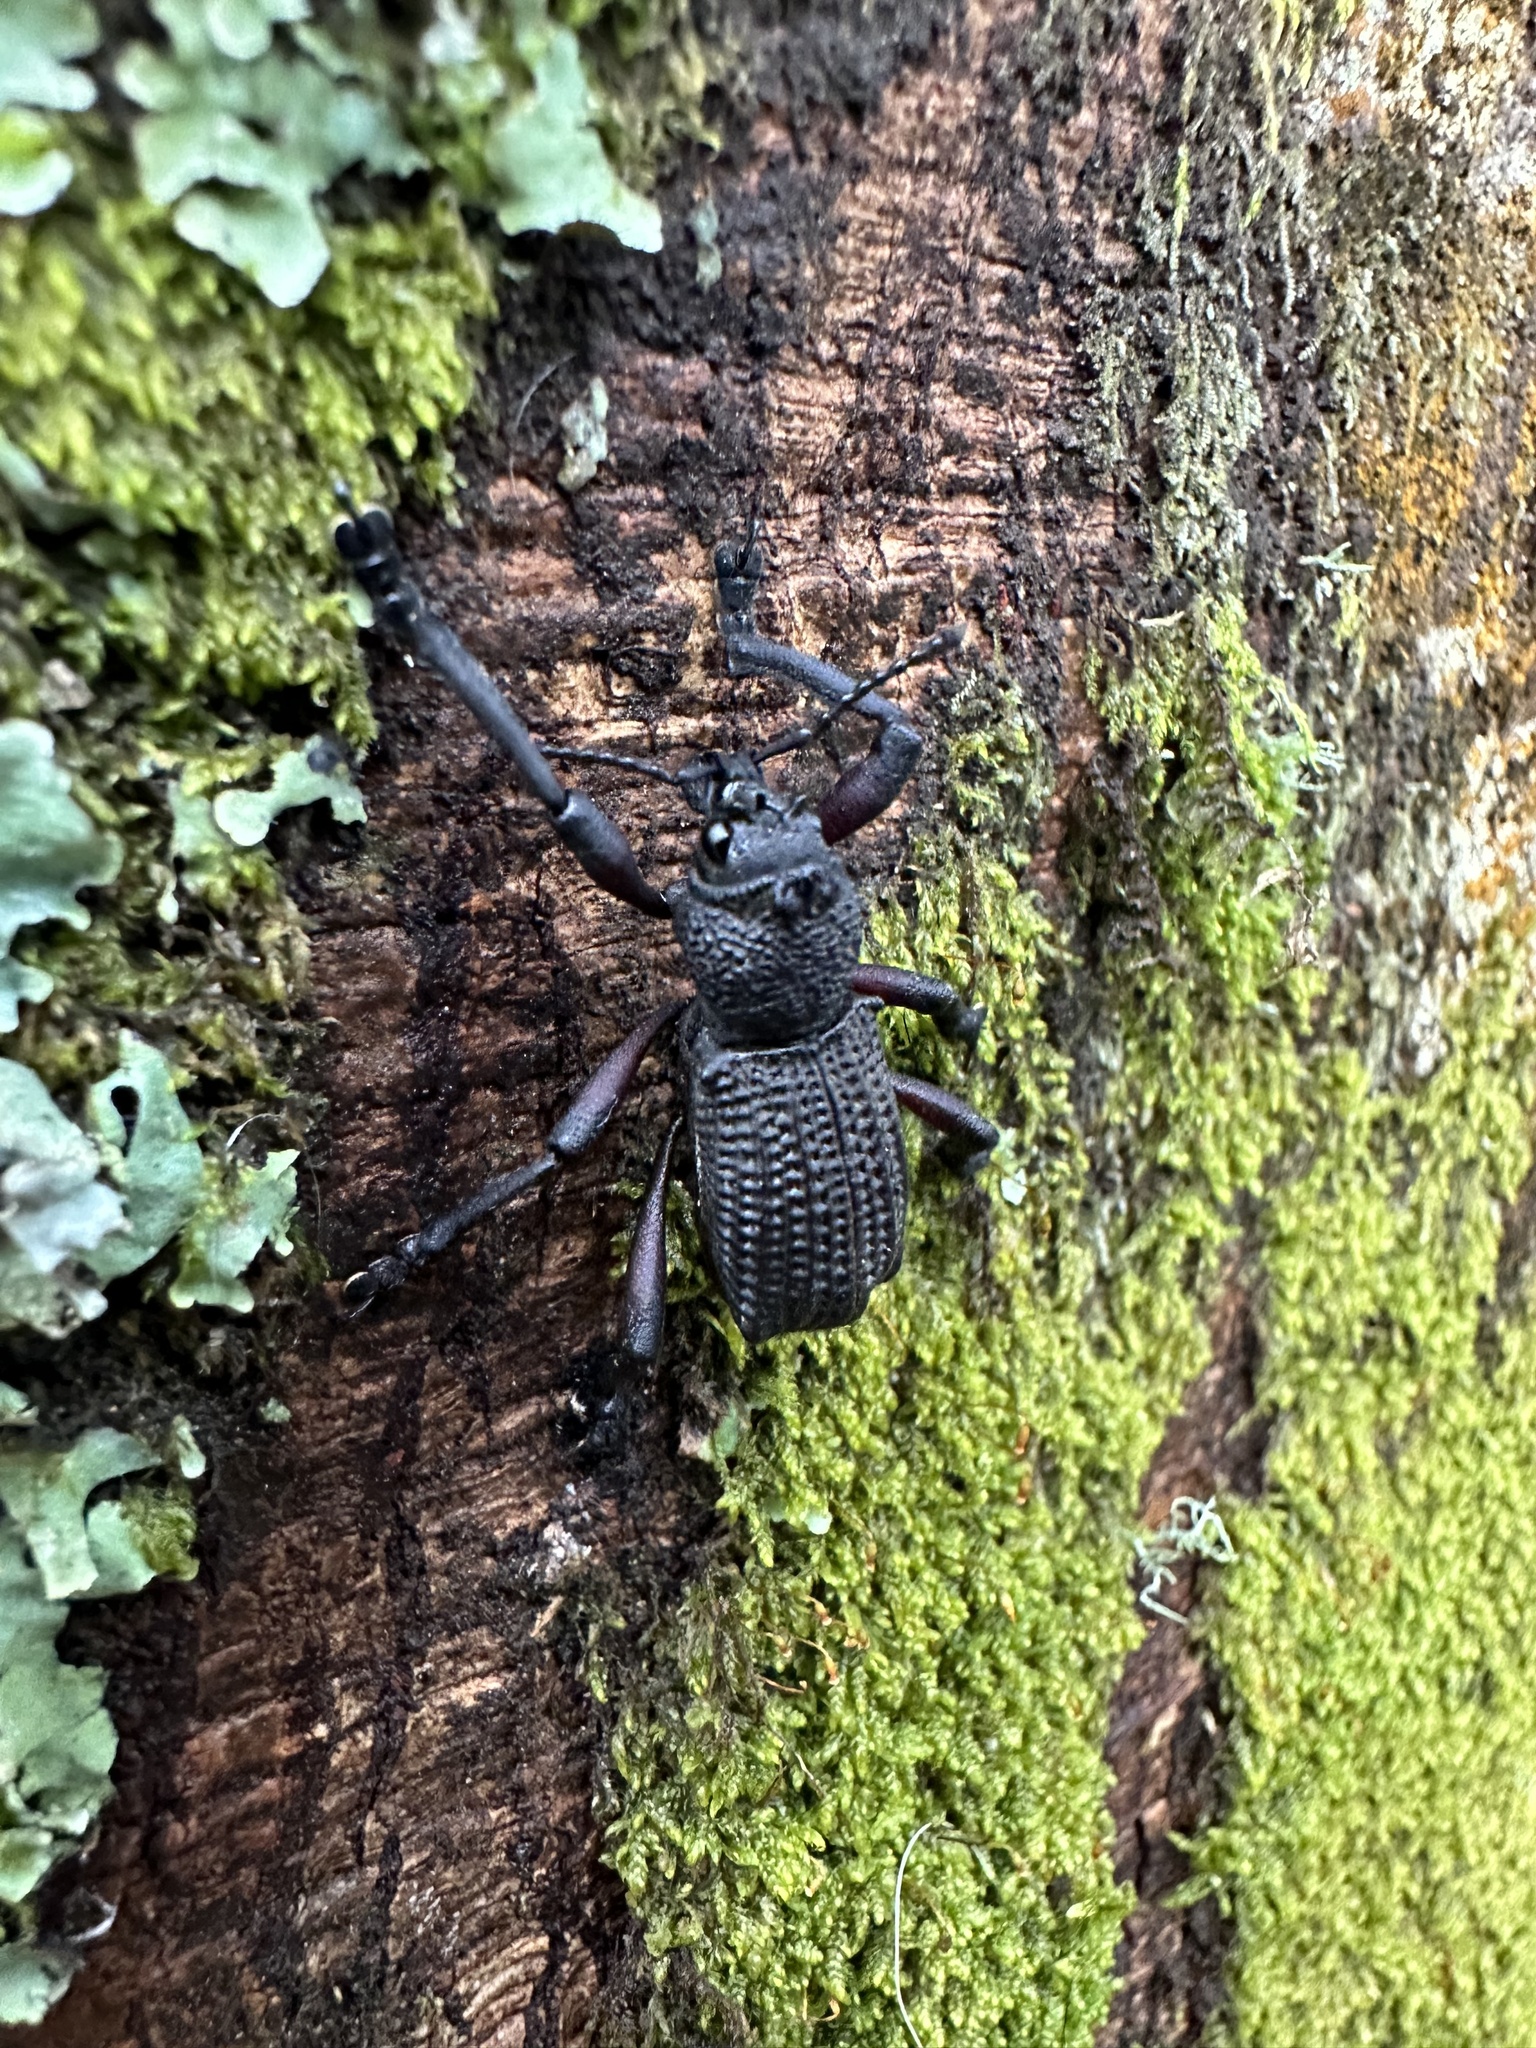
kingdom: Animalia
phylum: Arthropoda
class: Insecta
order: Coleoptera
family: Curculionidae
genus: Aegorhinus
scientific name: Aegorhinus
